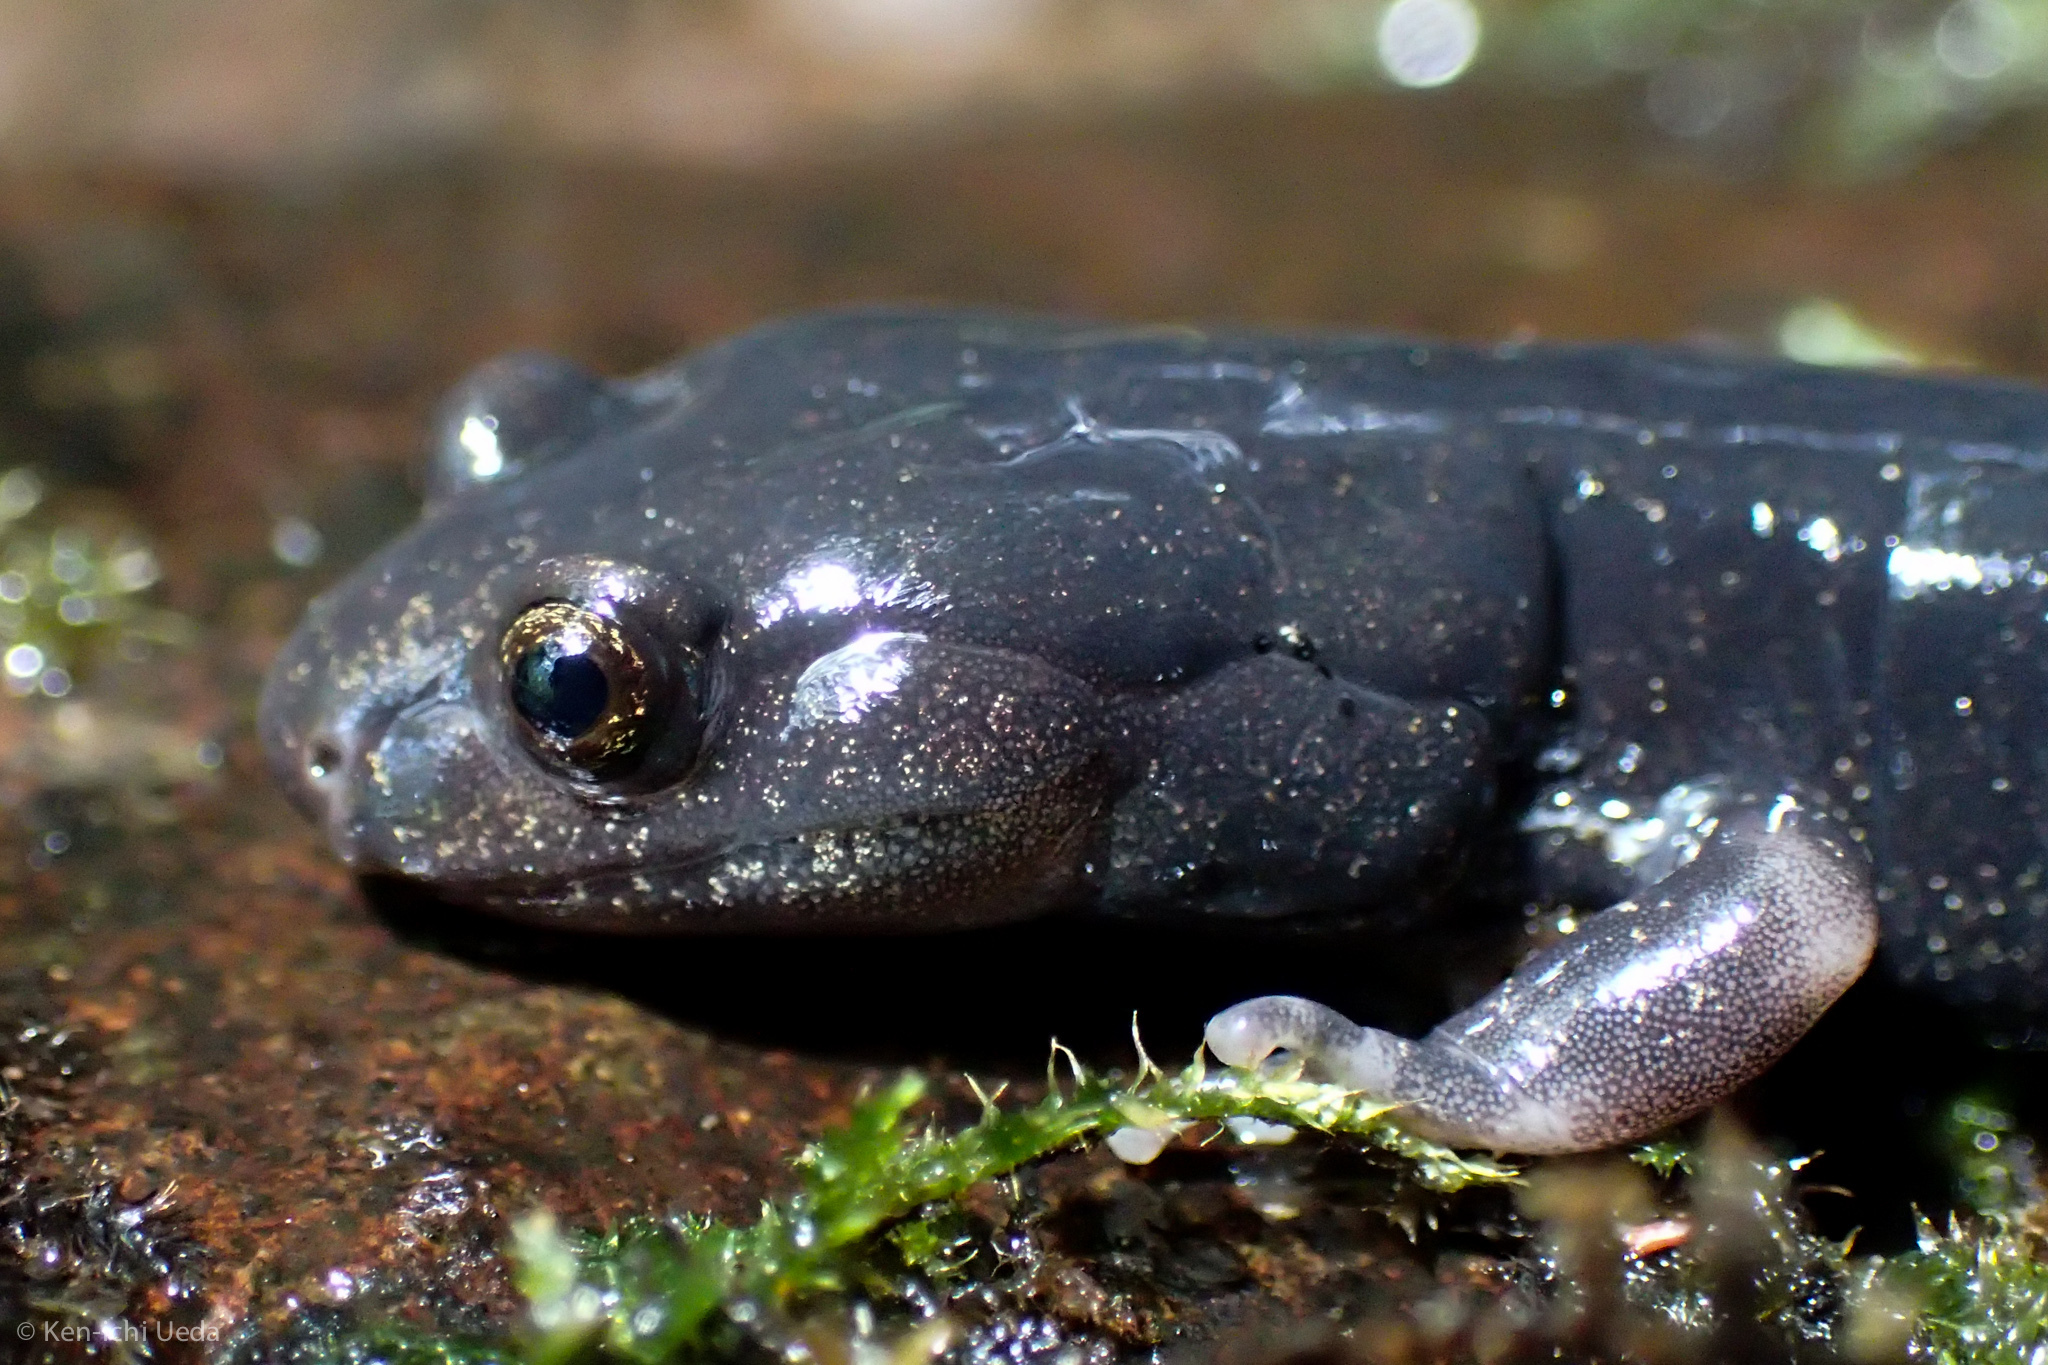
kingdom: Animalia
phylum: Chordata
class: Amphibia
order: Caudata
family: Plethodontidae
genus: Aneides
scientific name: Aneides flavipunctatus
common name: Black salamander
